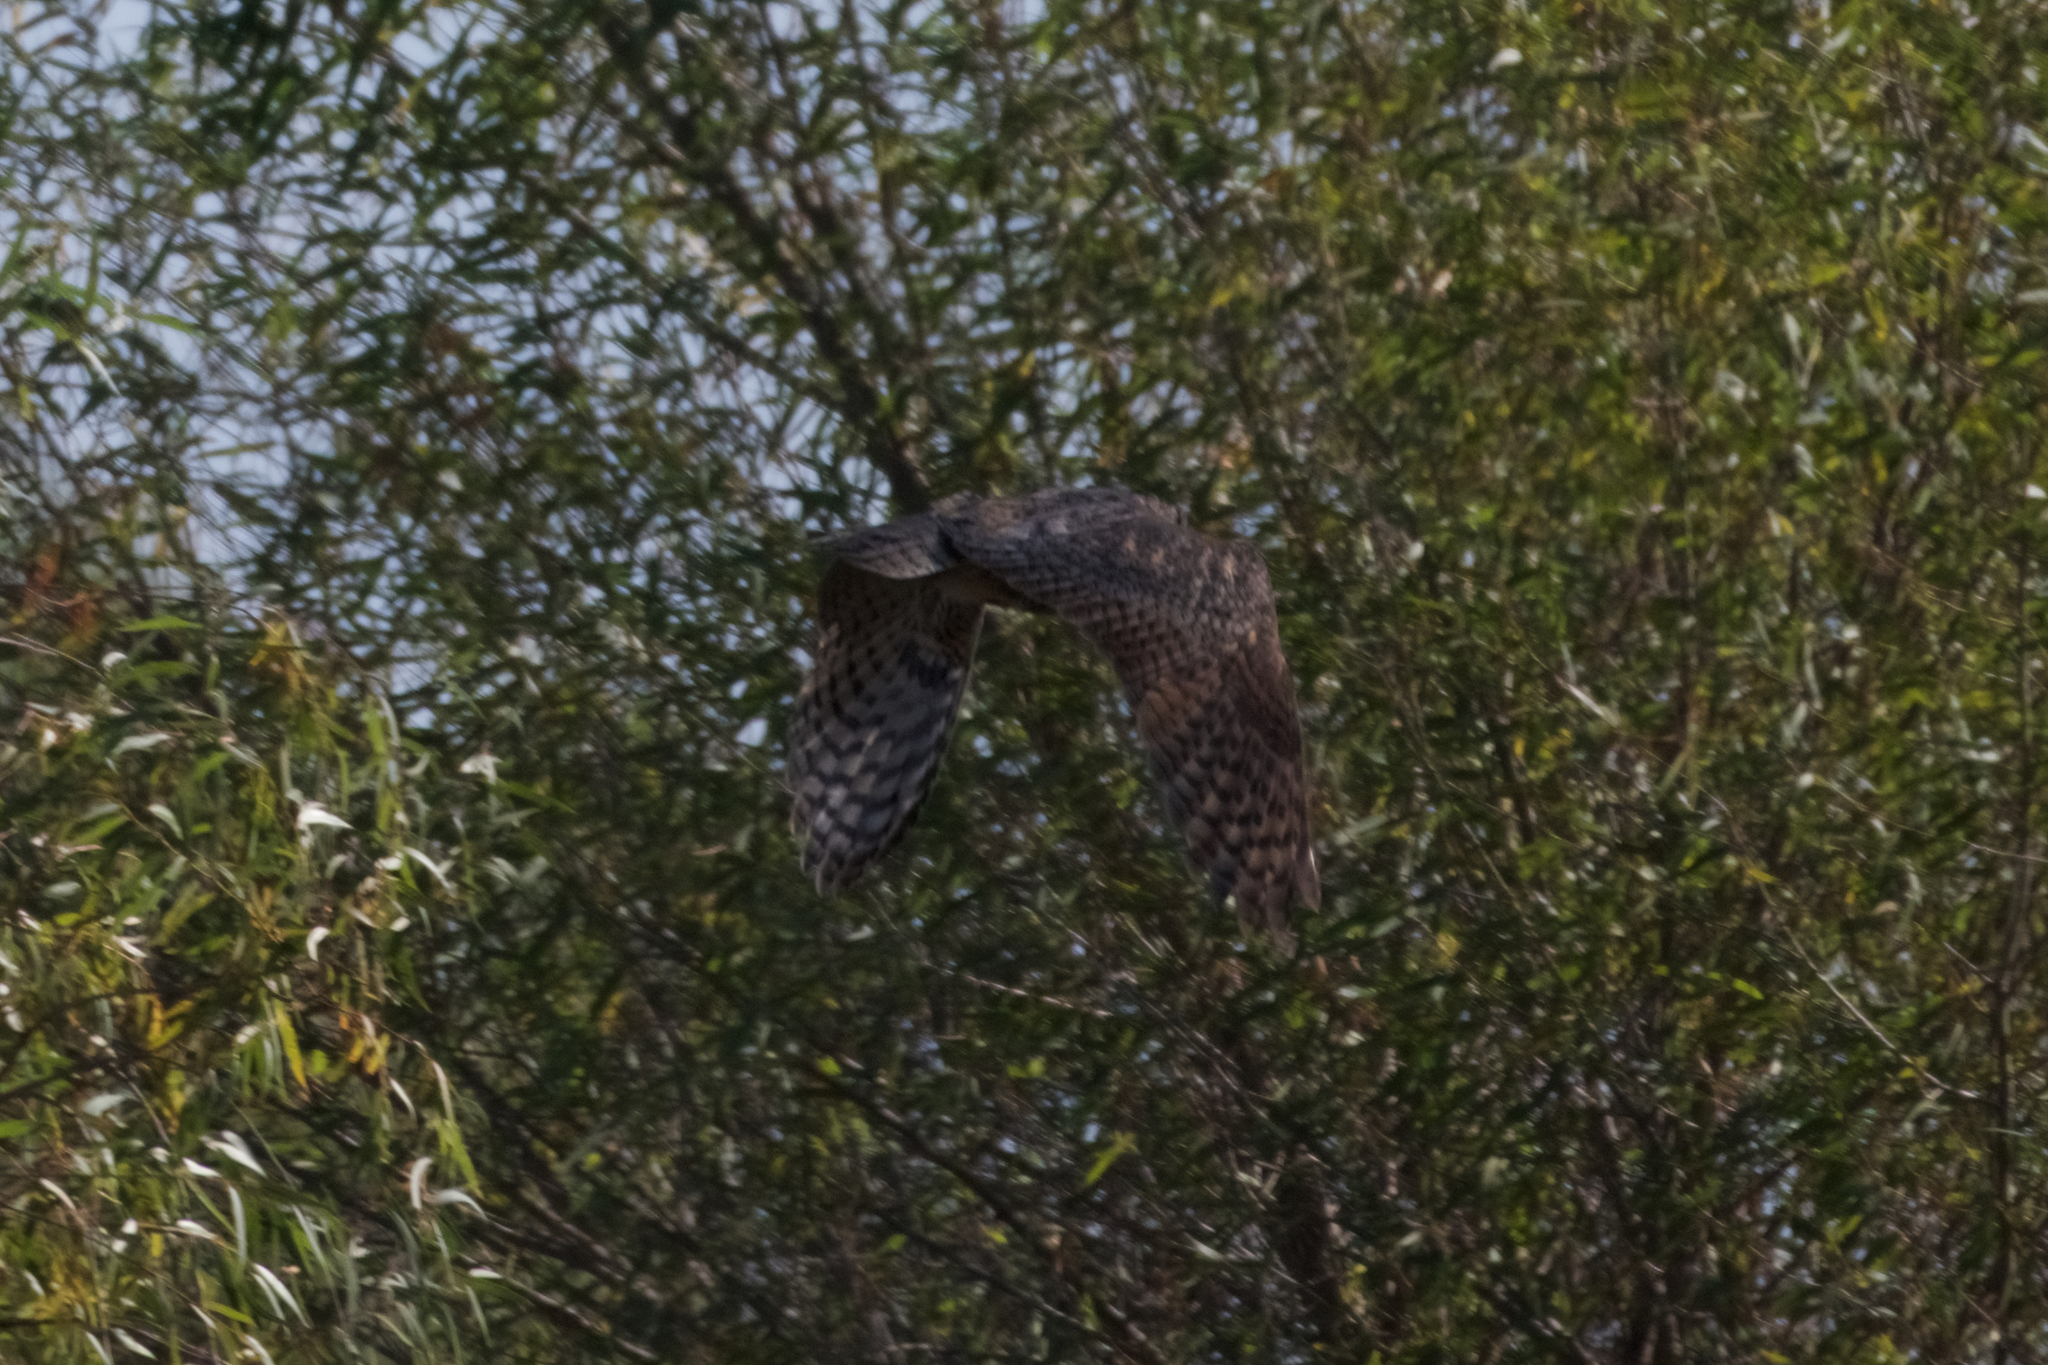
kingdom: Animalia
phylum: Chordata
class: Aves
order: Strigiformes
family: Strigidae
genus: Bubo
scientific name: Bubo virginianus
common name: Great horned owl
